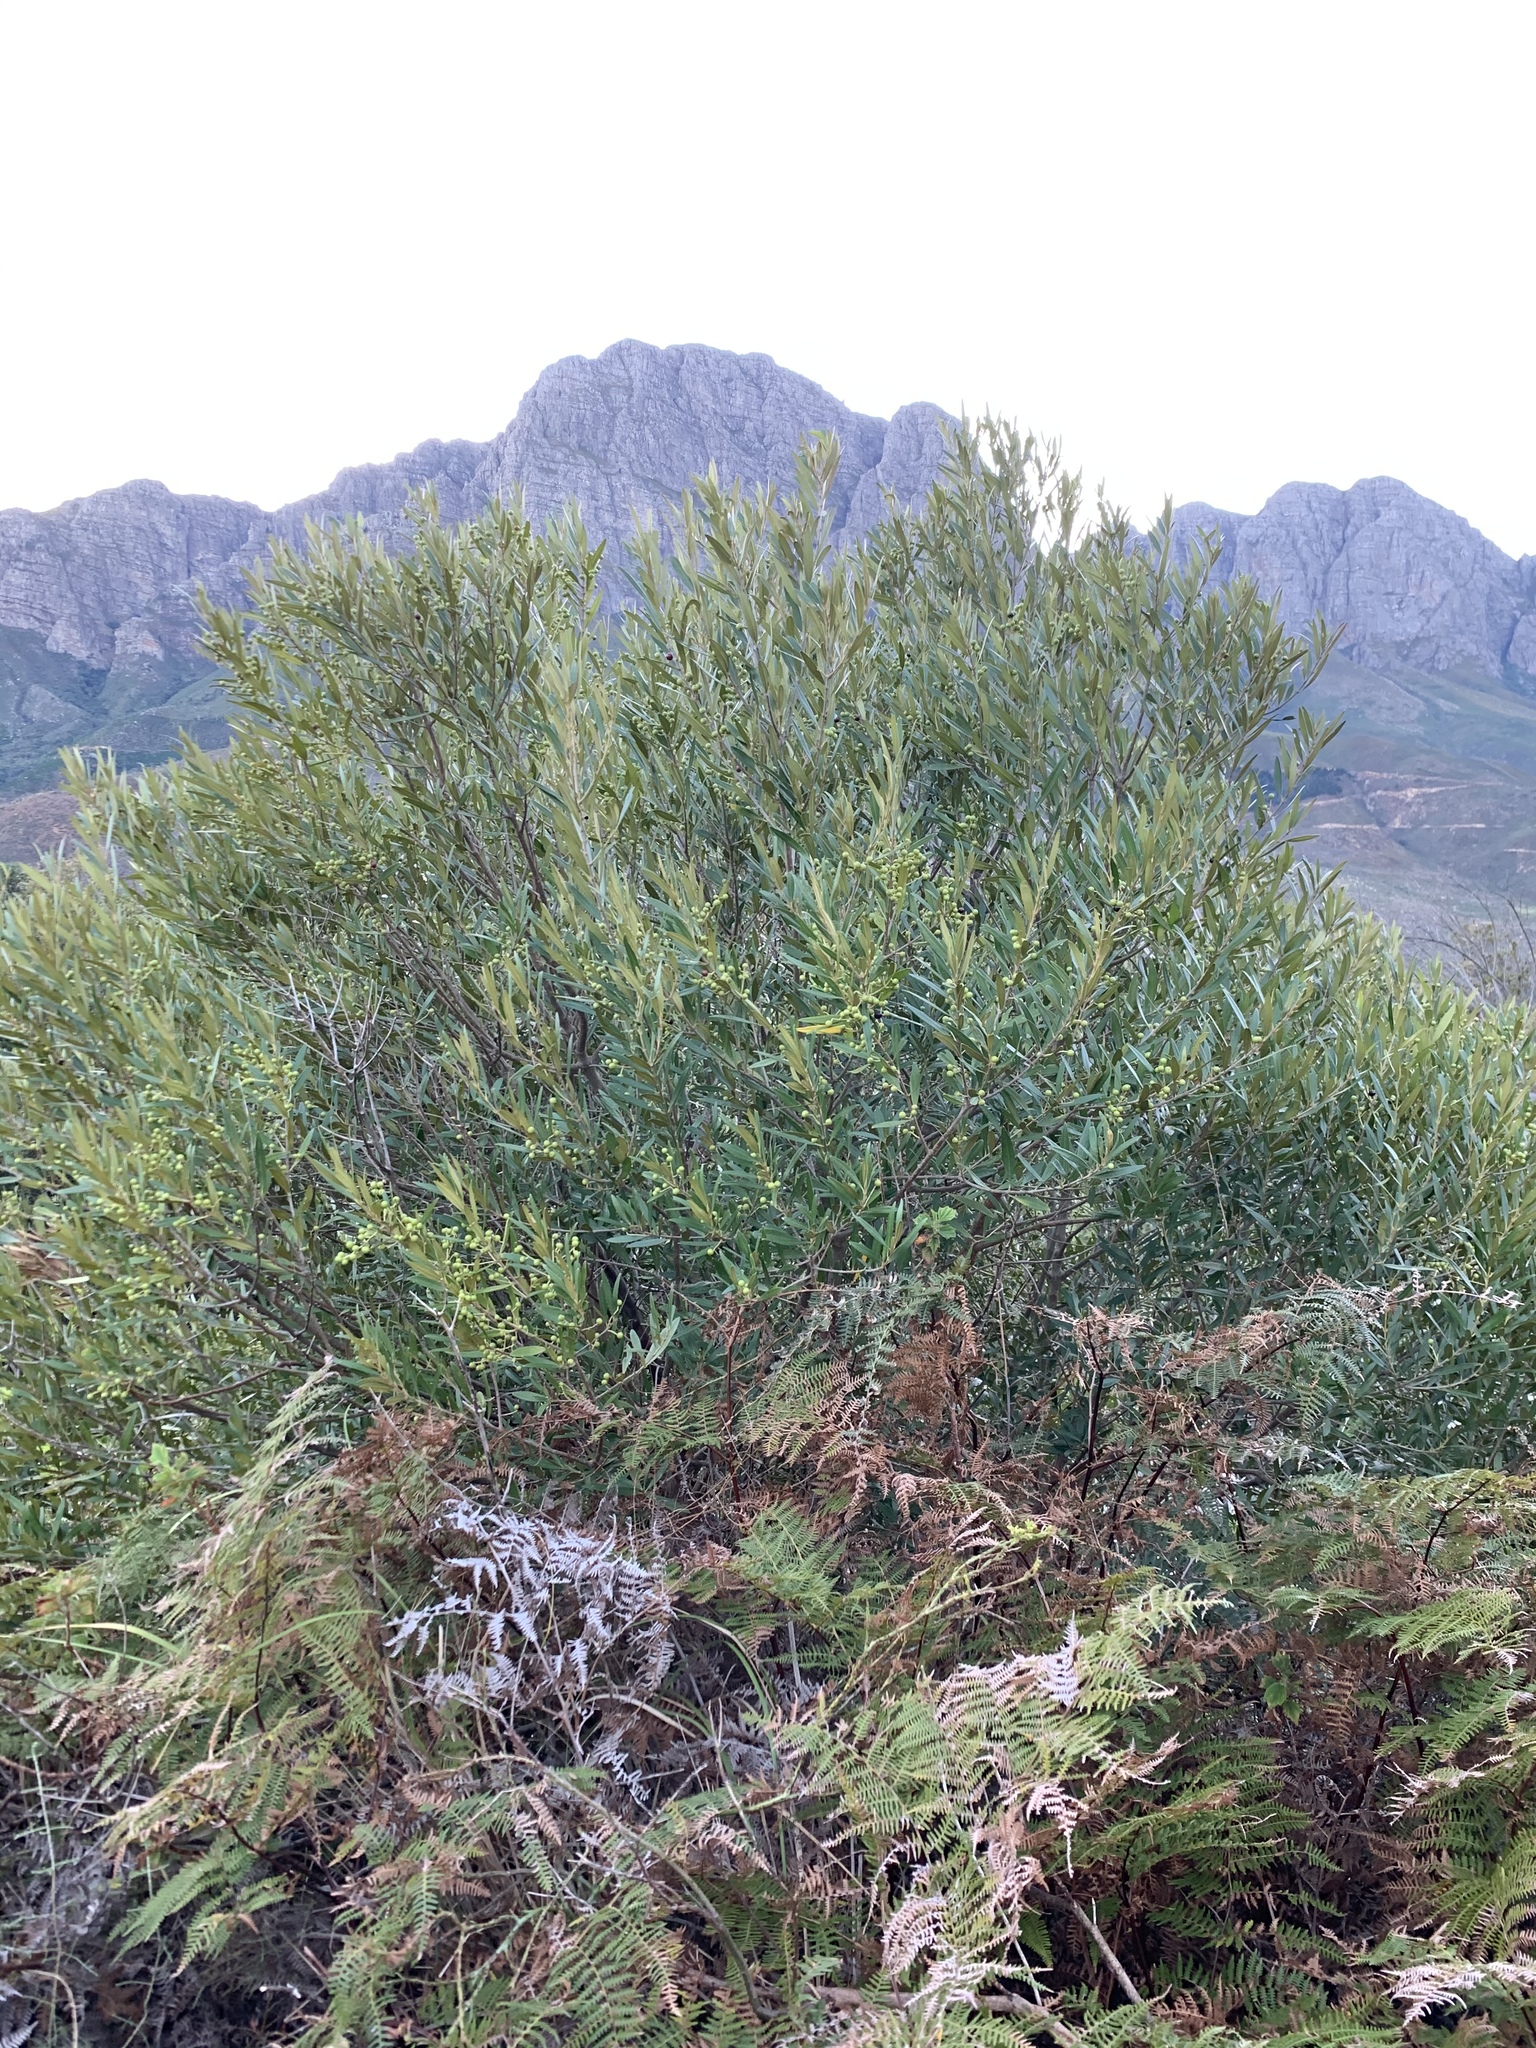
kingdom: Plantae
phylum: Tracheophyta
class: Magnoliopsida
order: Lamiales
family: Oleaceae
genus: Olea
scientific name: Olea europaea
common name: Olive
